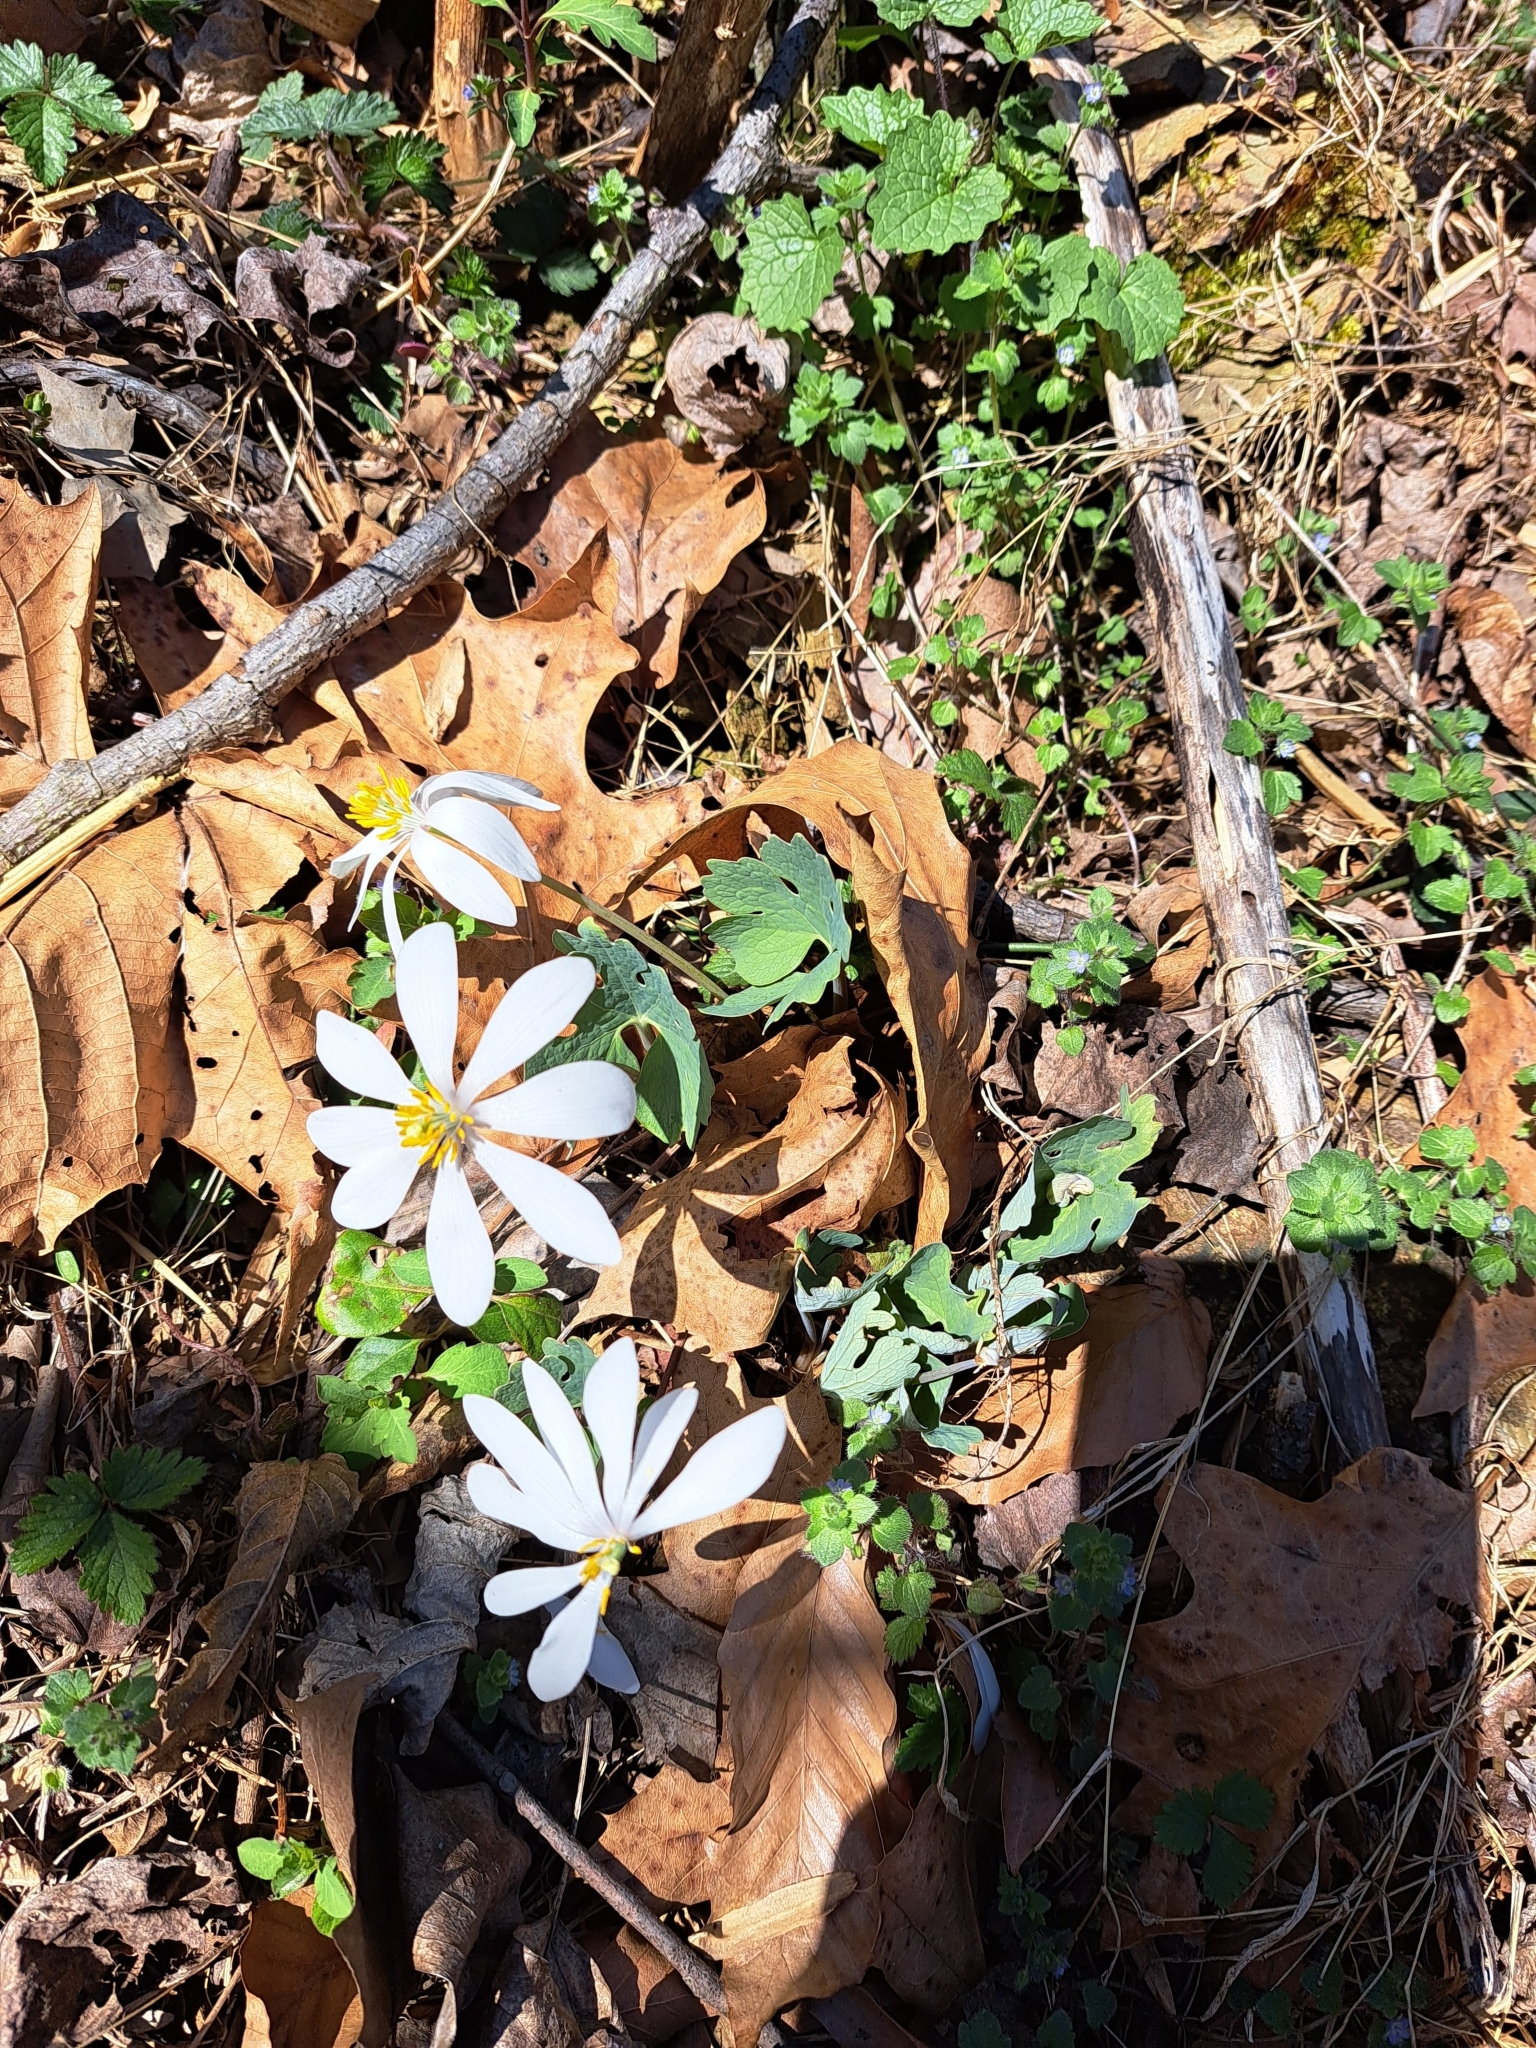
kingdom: Plantae
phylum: Tracheophyta
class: Magnoliopsida
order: Ranunculales
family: Papaveraceae
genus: Sanguinaria
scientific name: Sanguinaria canadensis
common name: Bloodroot
